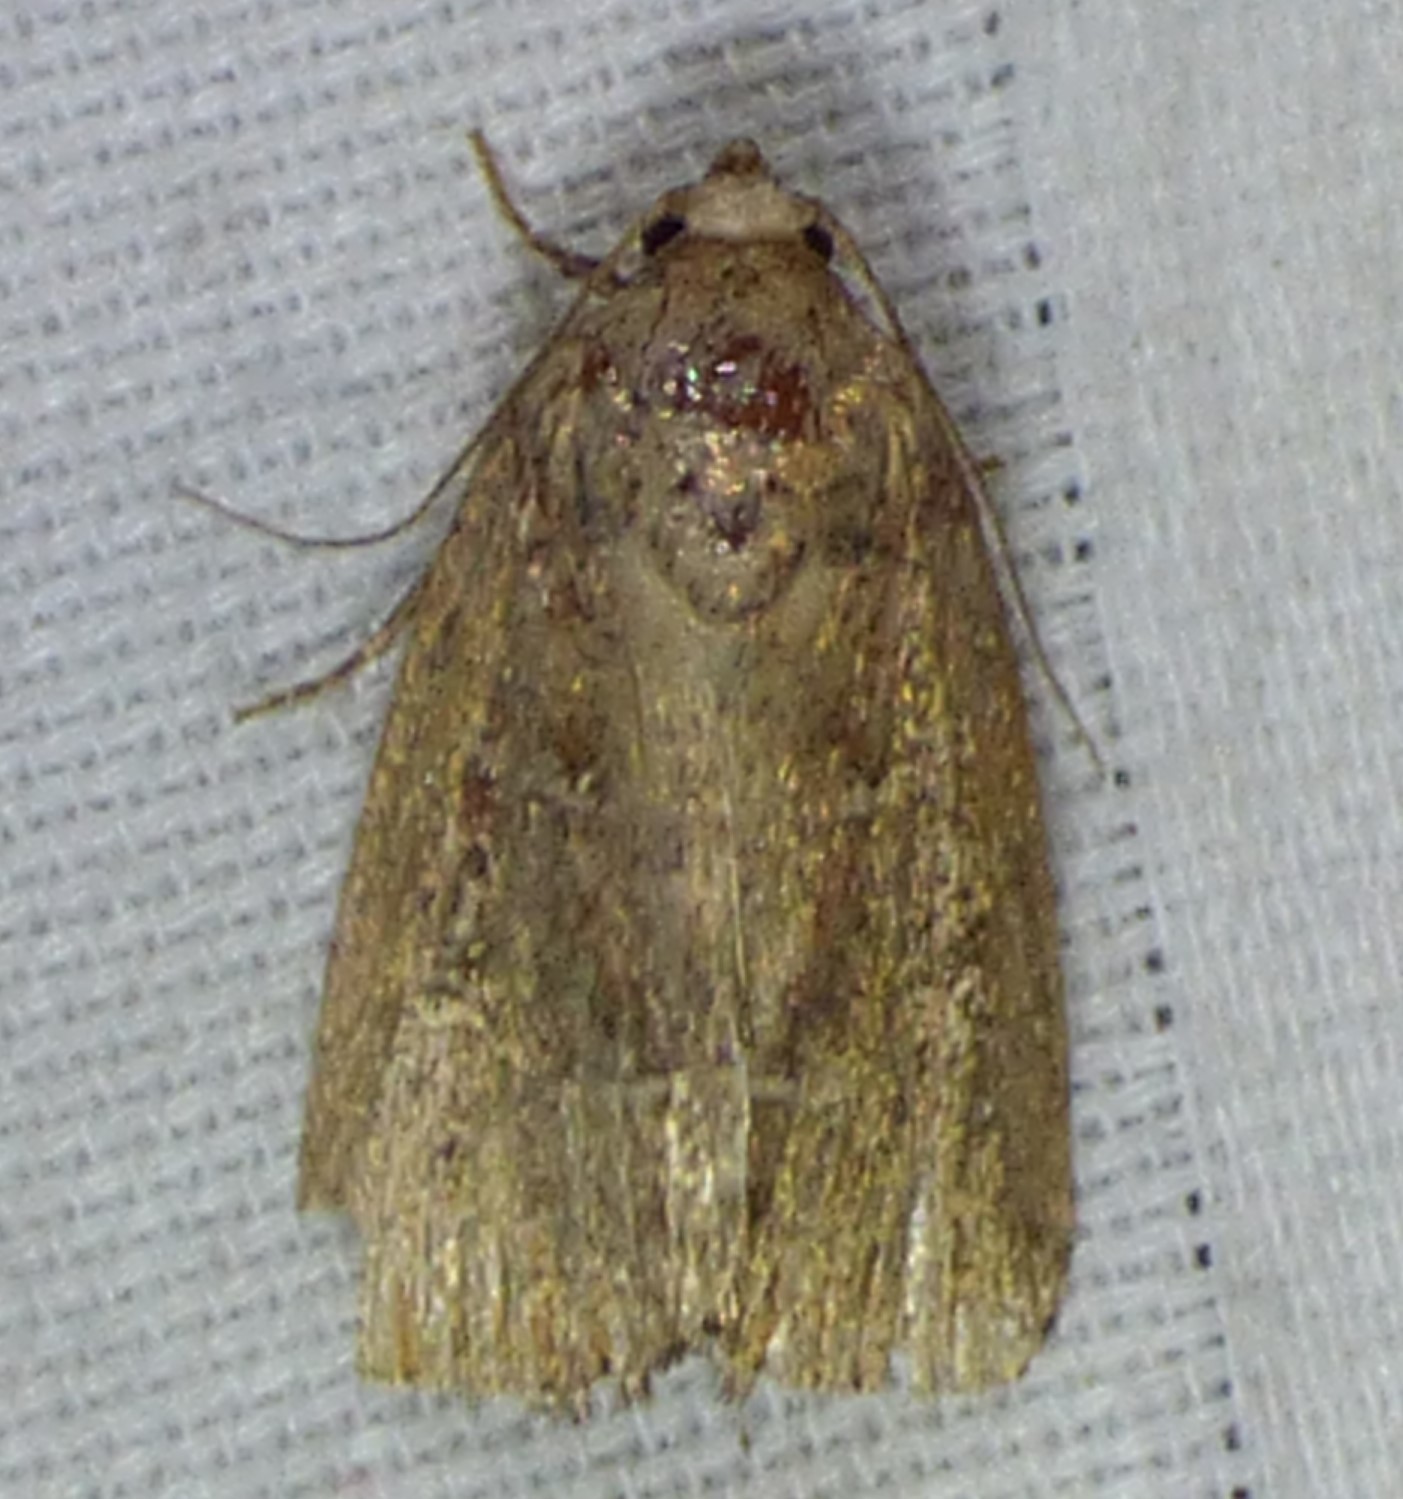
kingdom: Animalia
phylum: Arthropoda
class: Insecta
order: Lepidoptera
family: Noctuidae
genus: Elaphria
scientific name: Elaphria grata
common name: Grateful midget moth
